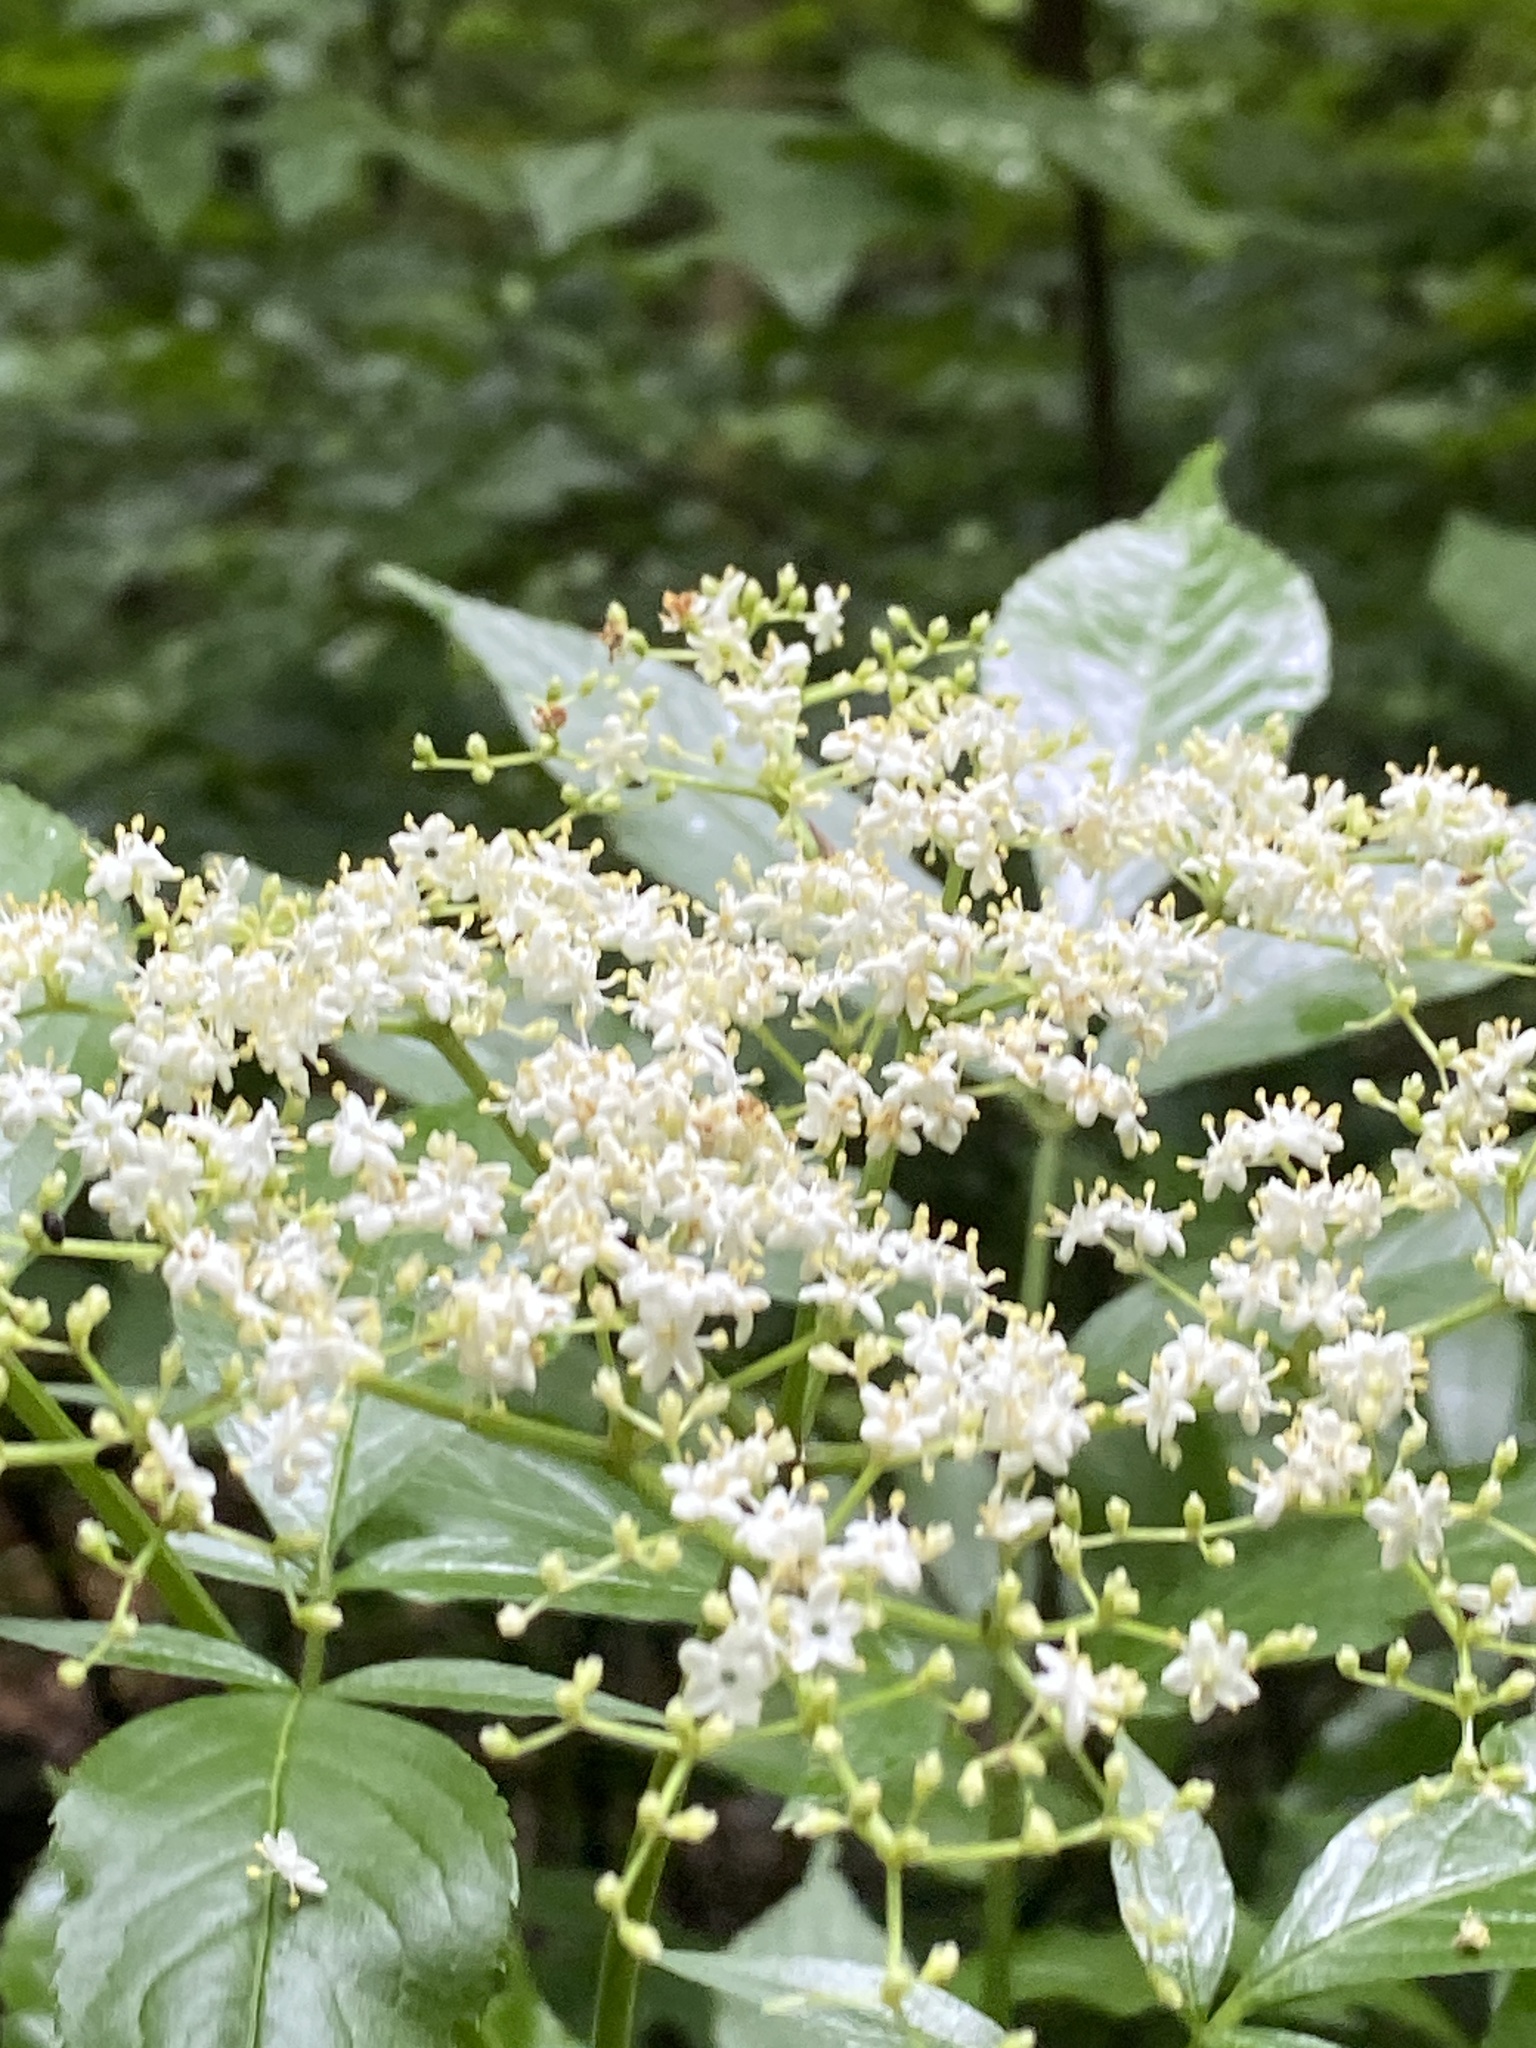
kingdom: Plantae
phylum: Tracheophyta
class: Magnoliopsida
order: Dipsacales
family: Viburnaceae
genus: Sambucus
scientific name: Sambucus canadensis
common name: American elder
